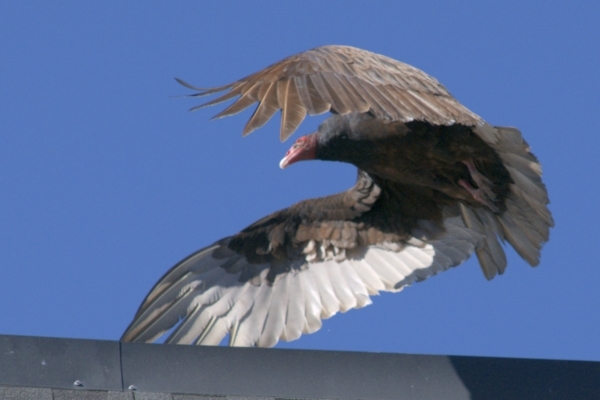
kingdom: Animalia
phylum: Chordata
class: Aves
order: Accipitriformes
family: Cathartidae
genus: Cathartes
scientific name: Cathartes aura
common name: Turkey vulture
